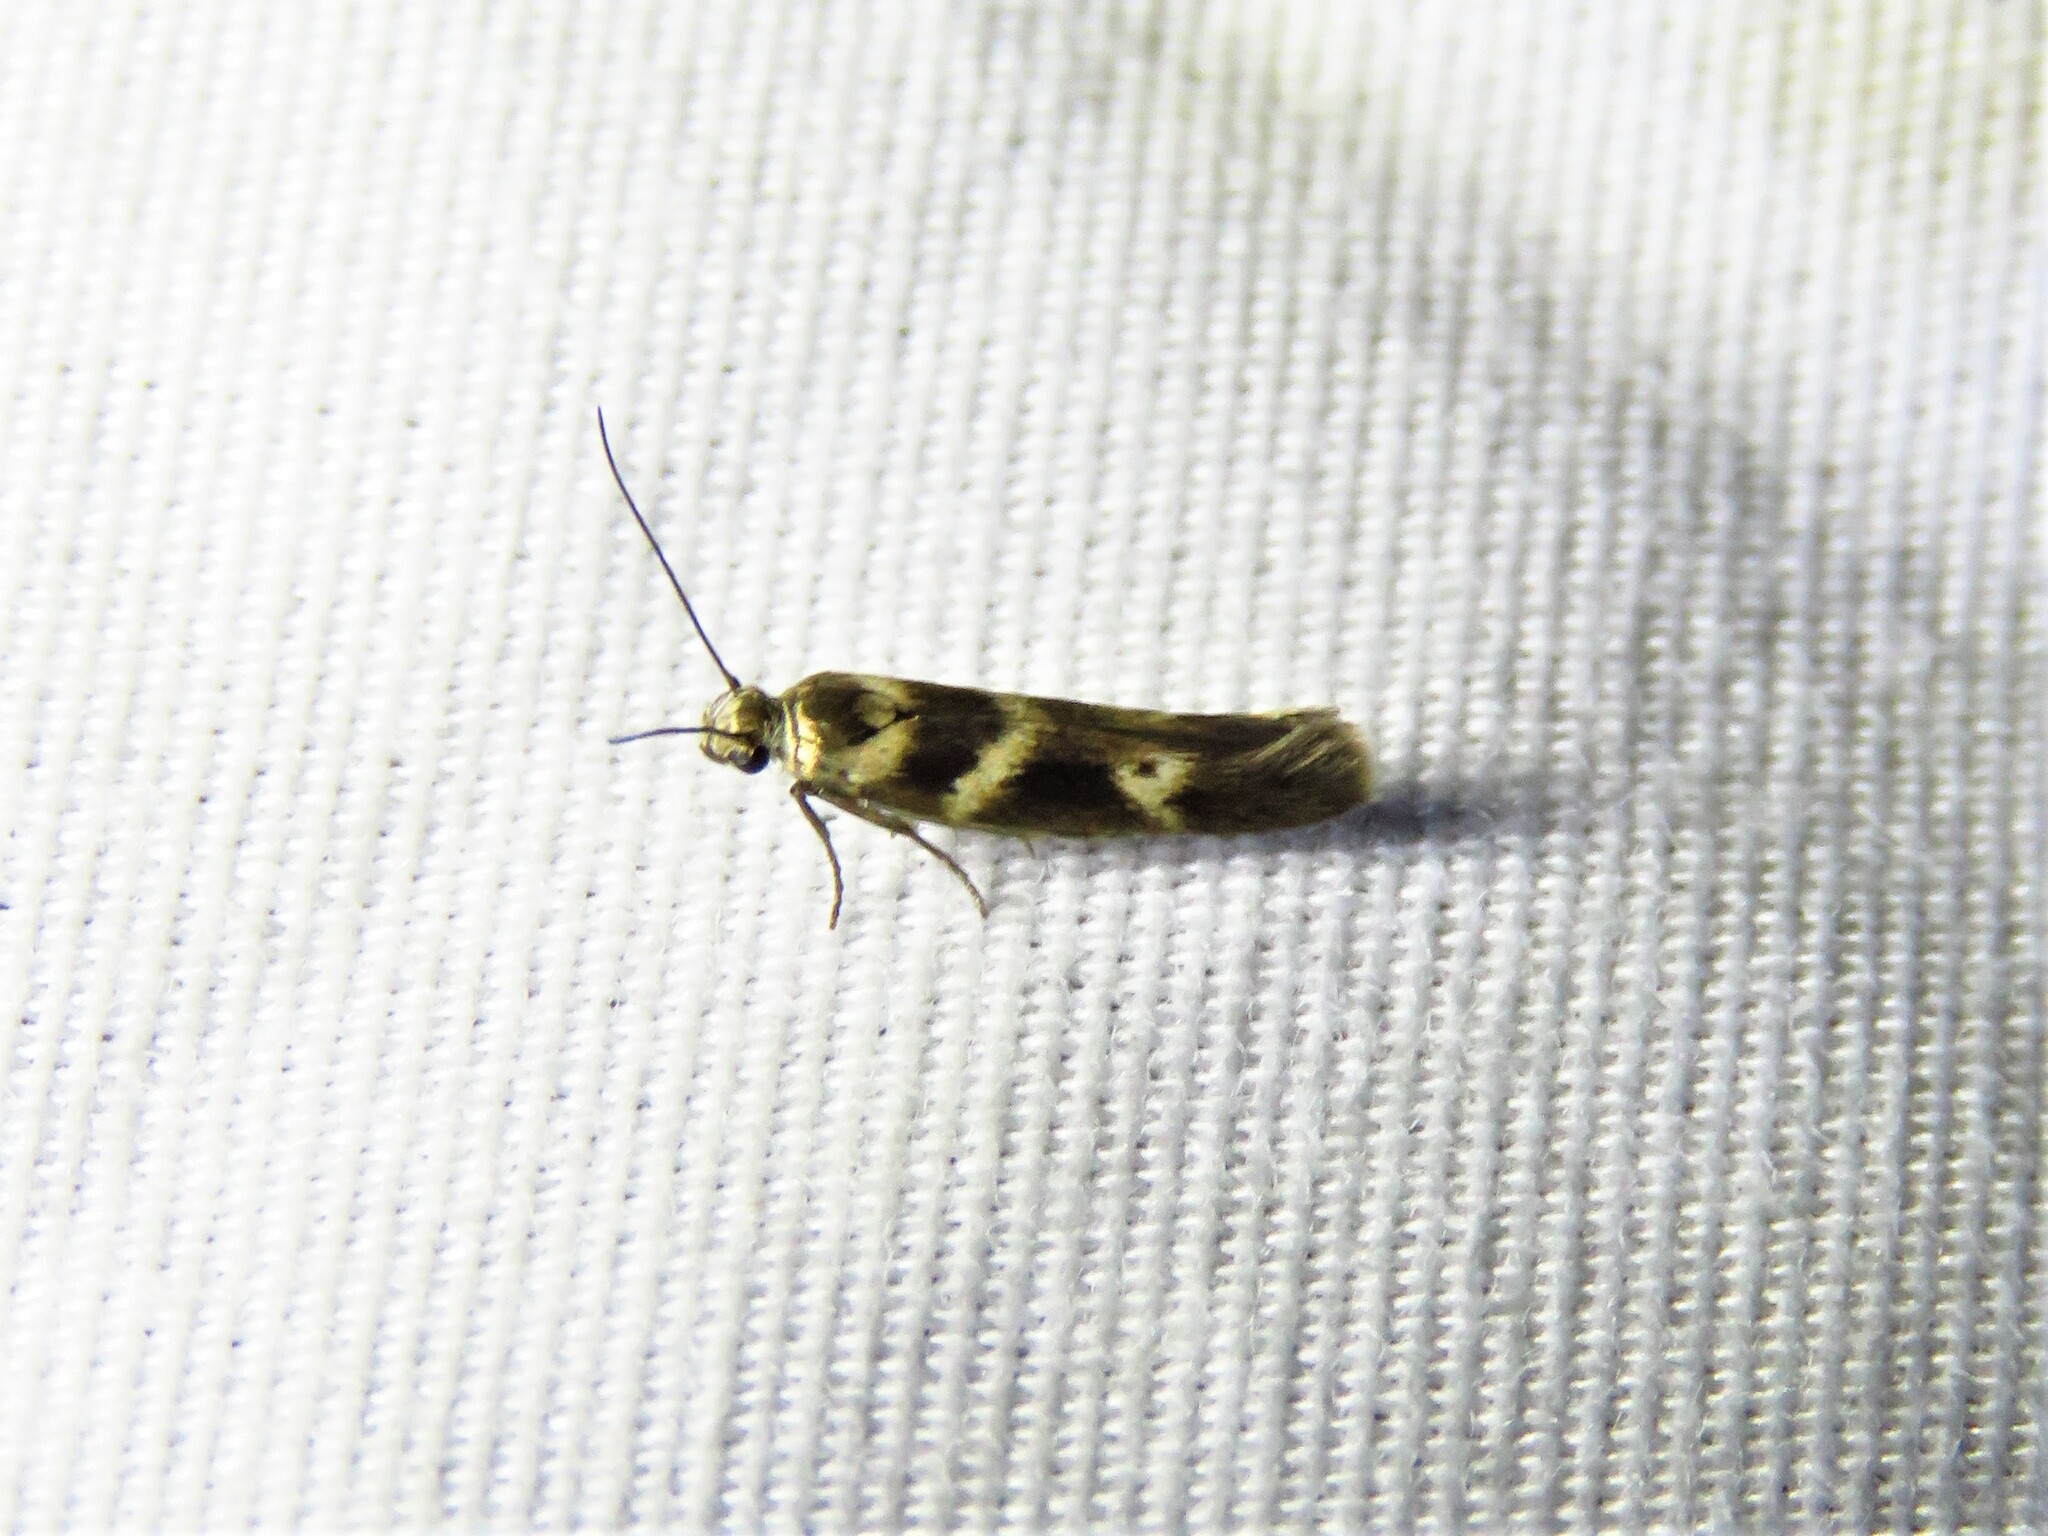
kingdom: Animalia
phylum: Arthropoda
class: Insecta
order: Lepidoptera
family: Scythrididae
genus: Scythris
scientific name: Scythris trivinctella
